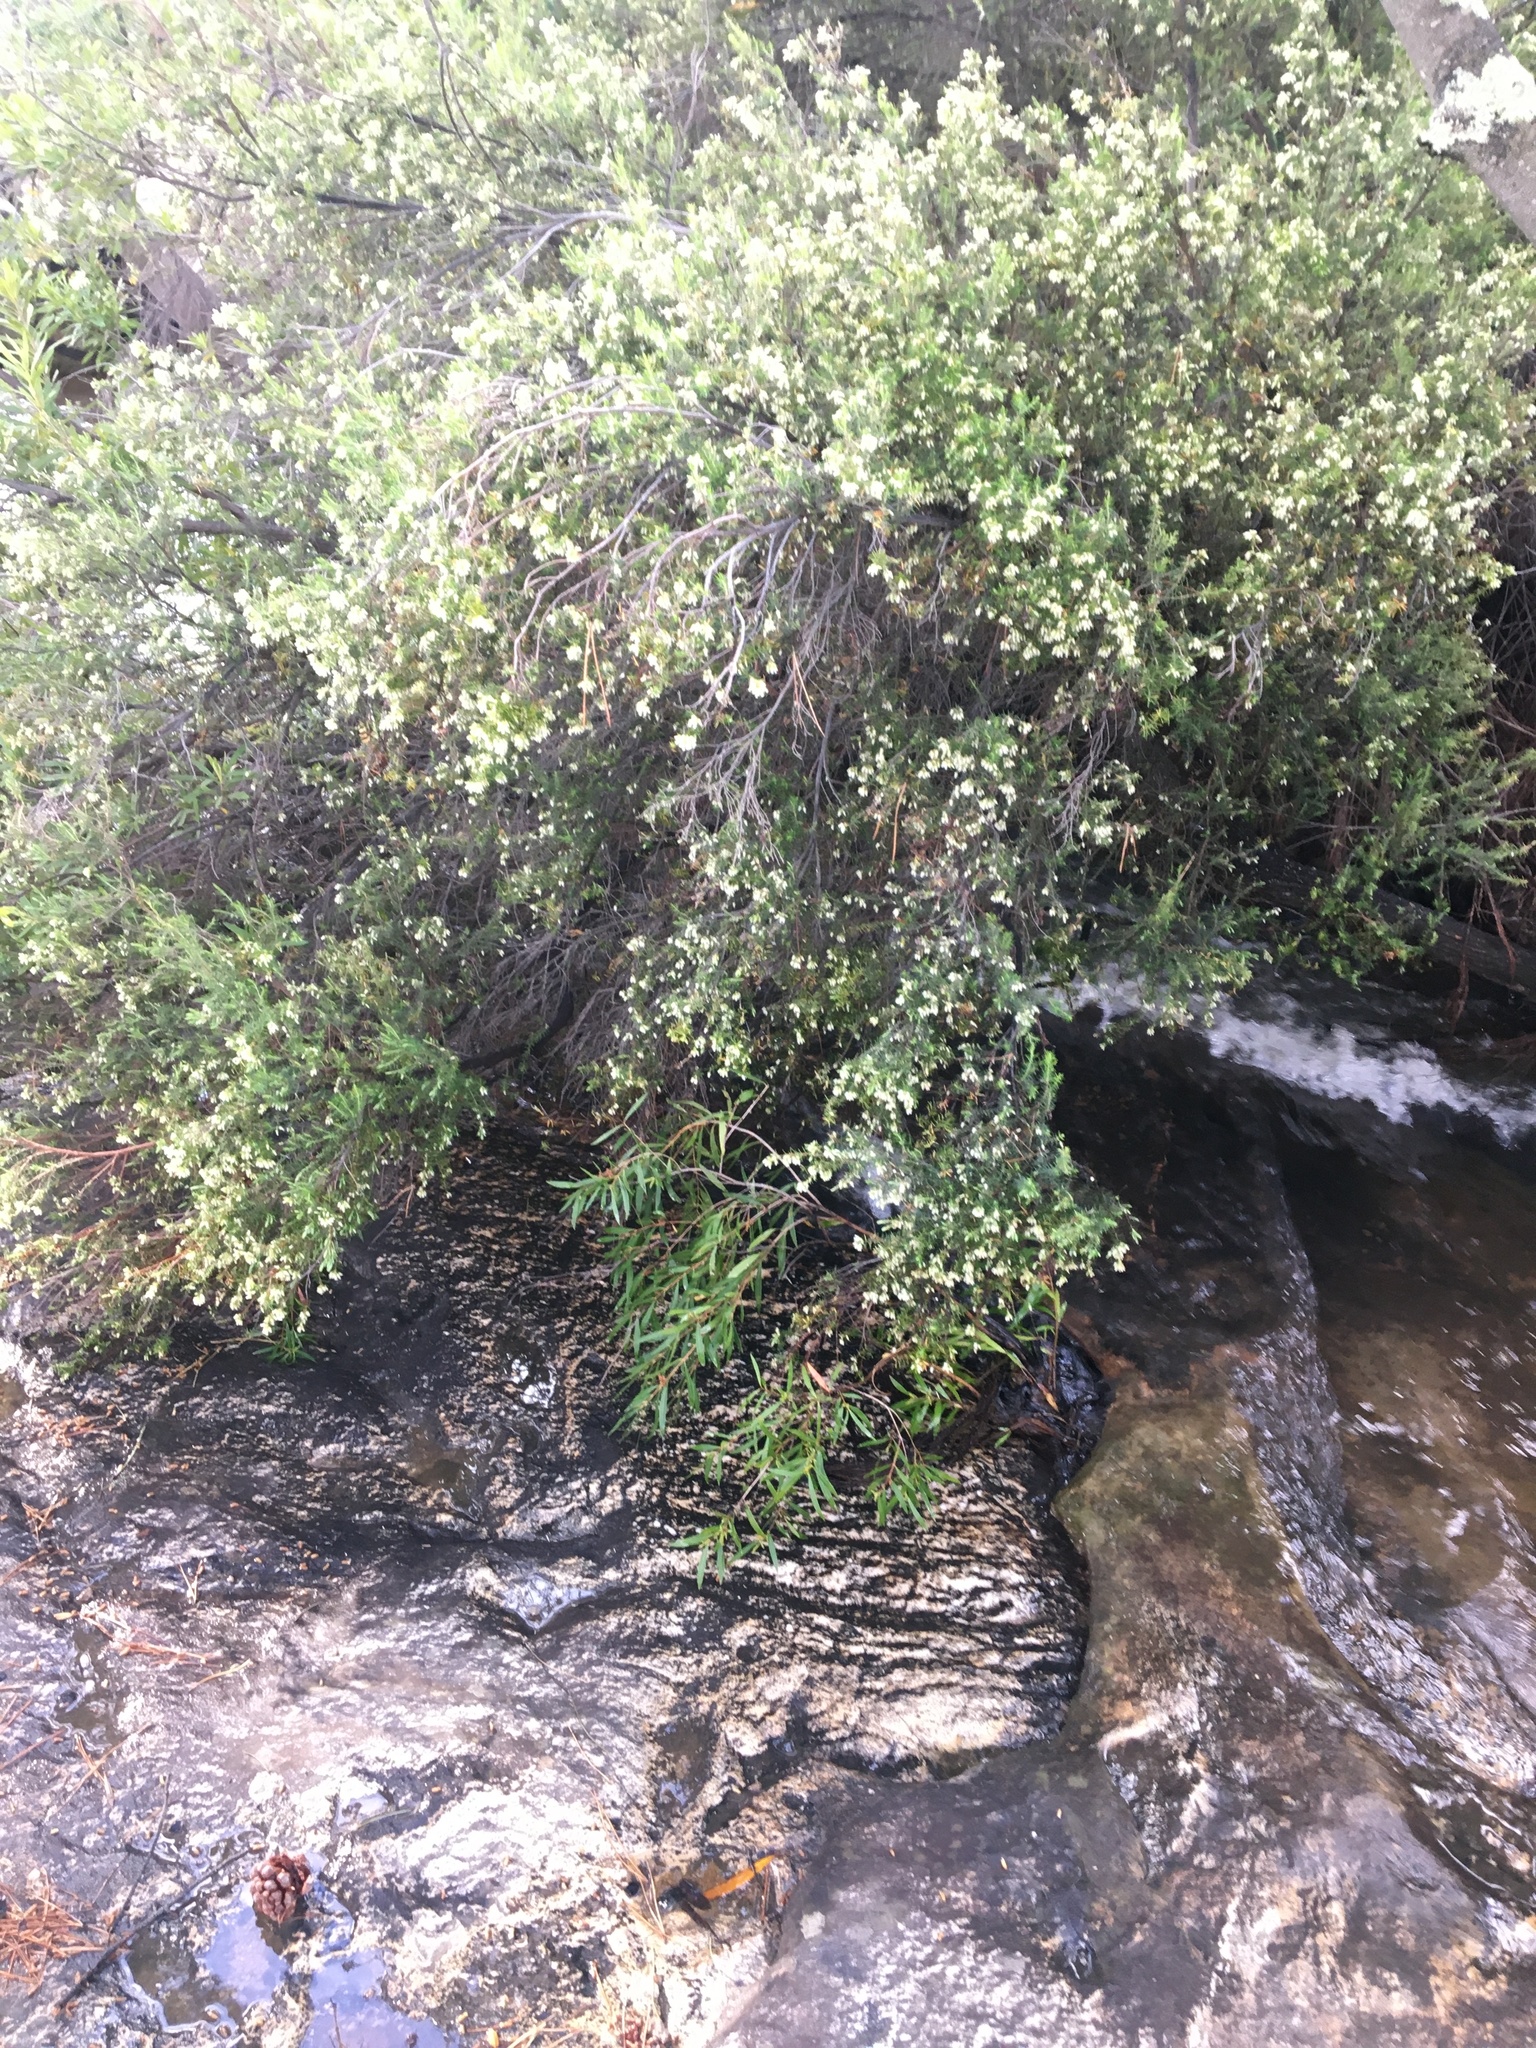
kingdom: Plantae
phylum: Tracheophyta
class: Magnoliopsida
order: Ericales
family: Ericaceae
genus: Erica
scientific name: Erica caffra
